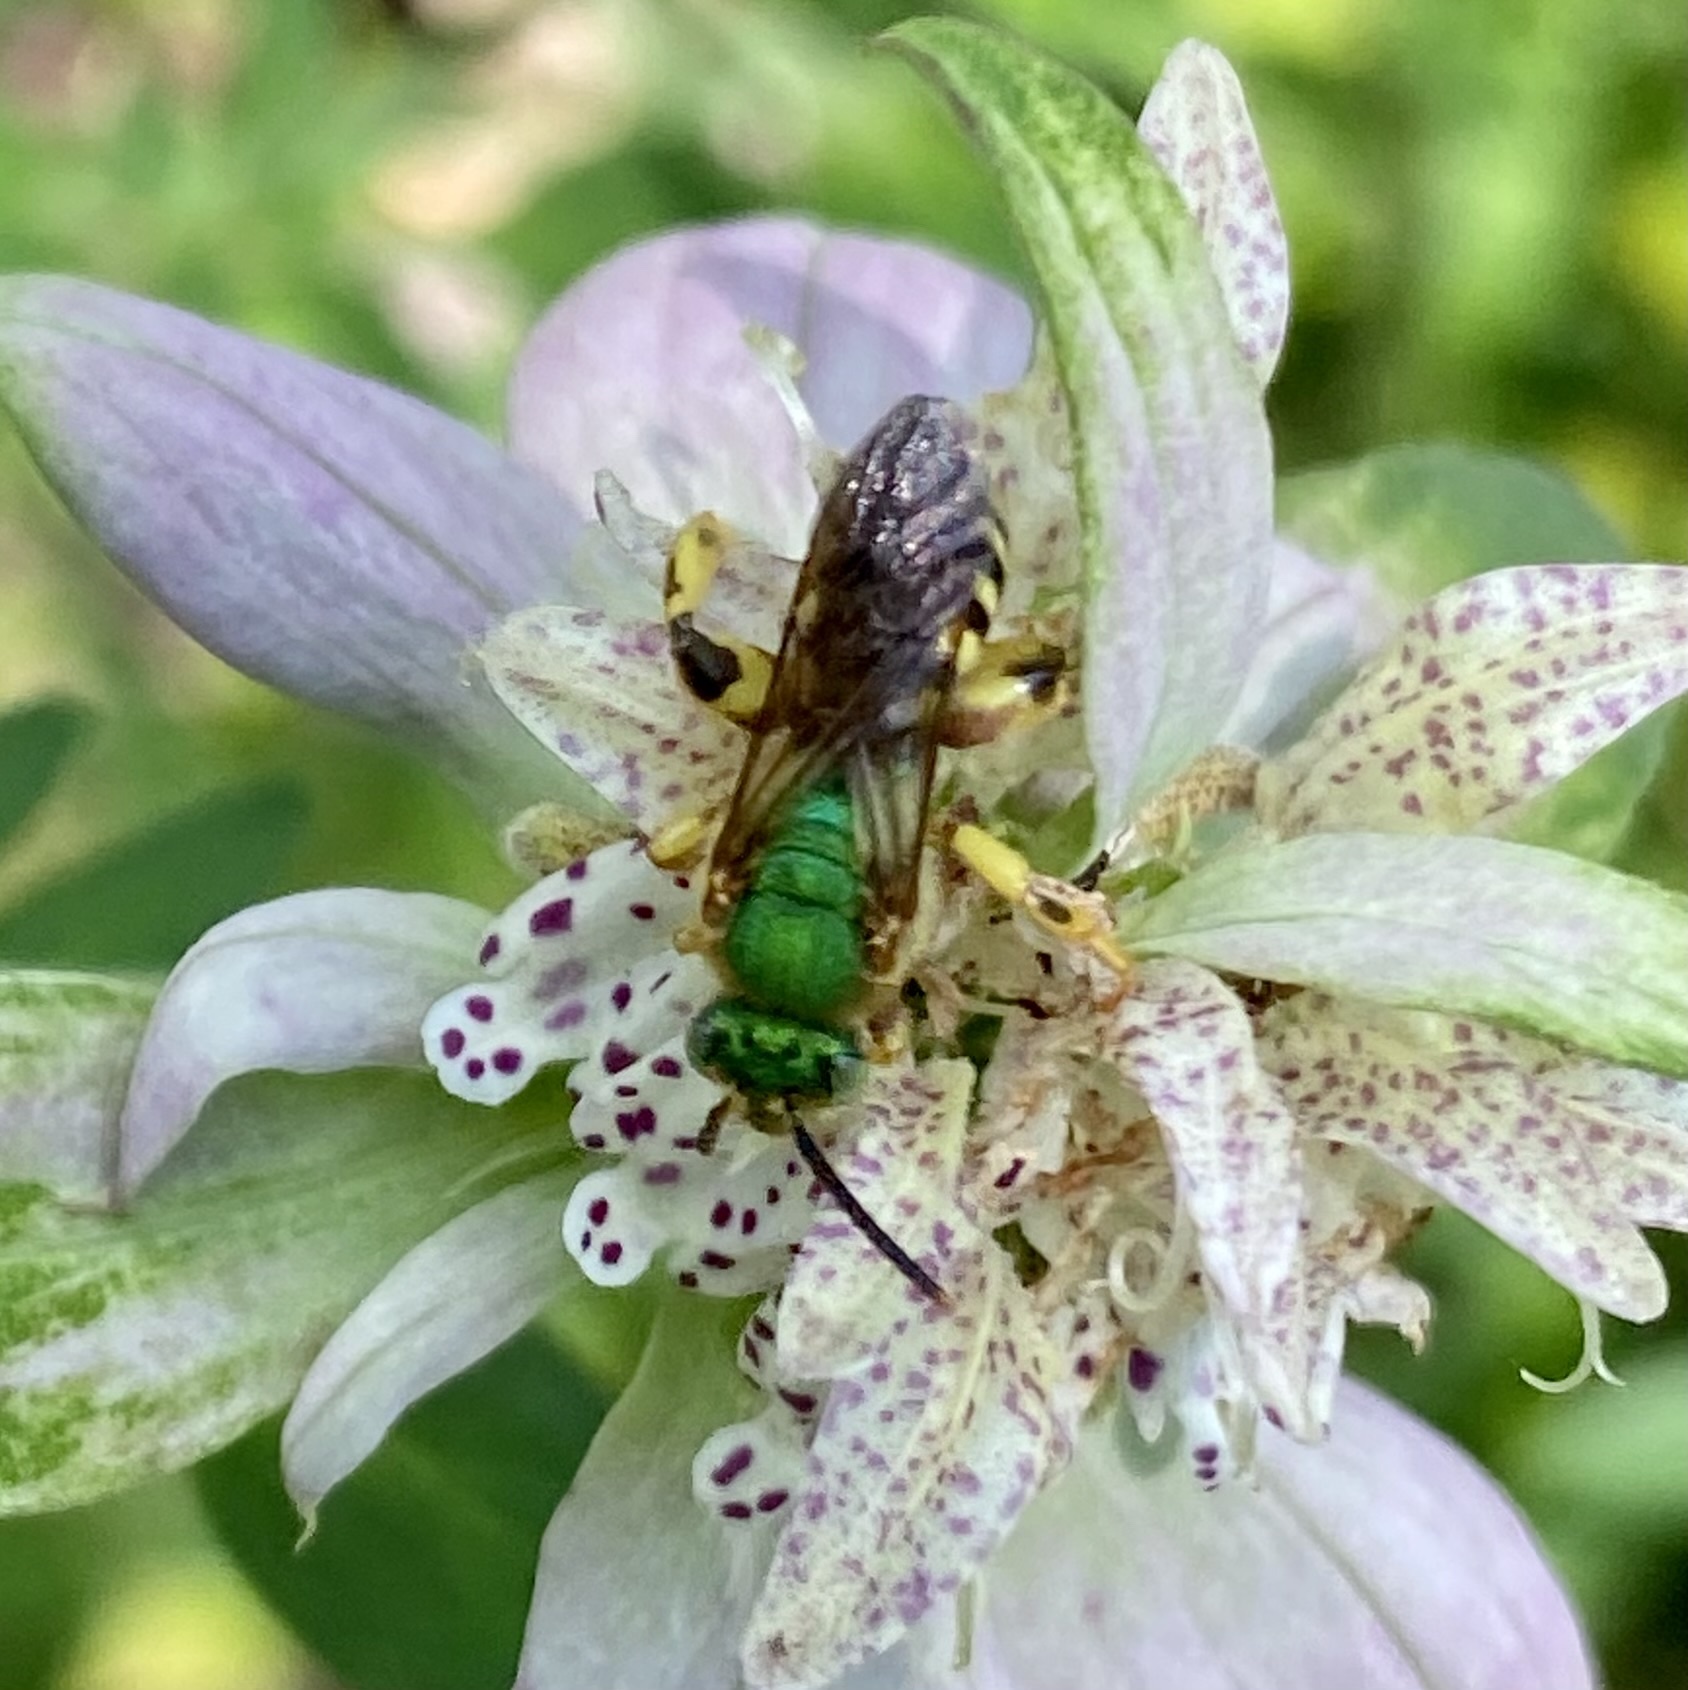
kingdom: Animalia
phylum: Arthropoda
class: Insecta
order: Hymenoptera
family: Halictidae
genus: Agapostemon
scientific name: Agapostemon splendens
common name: Brown-winged striped sweat bee
